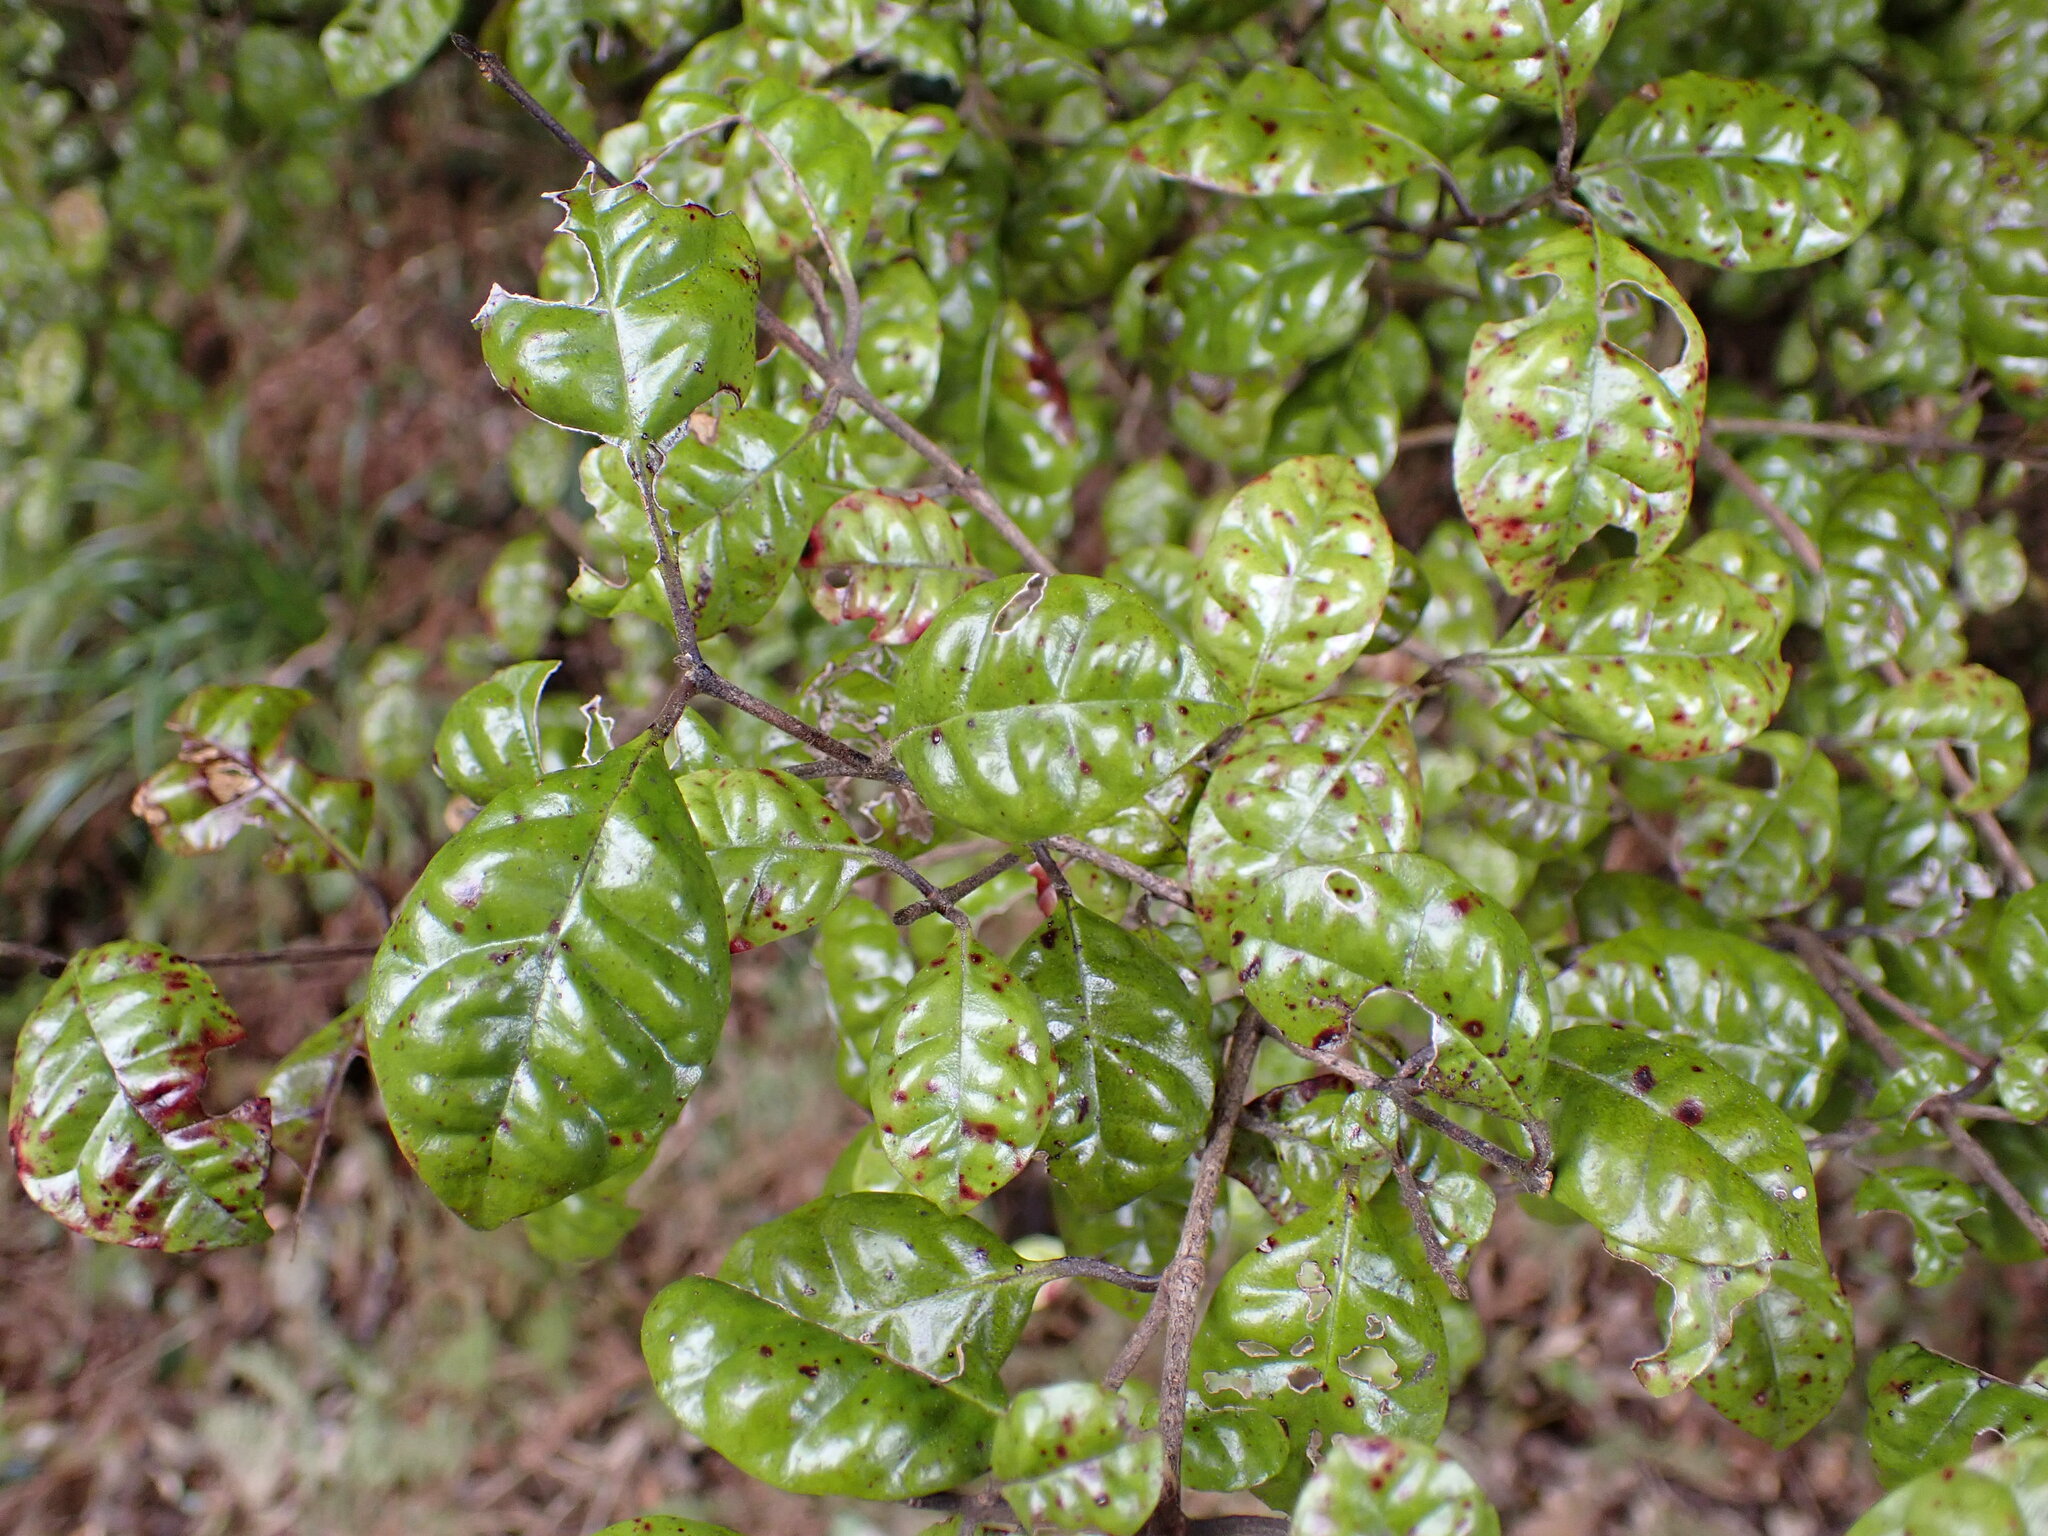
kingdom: Plantae
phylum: Tracheophyta
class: Magnoliopsida
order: Myrtales
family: Myrtaceae
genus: Lophomyrtus
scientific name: Lophomyrtus bullata
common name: Rama rama
